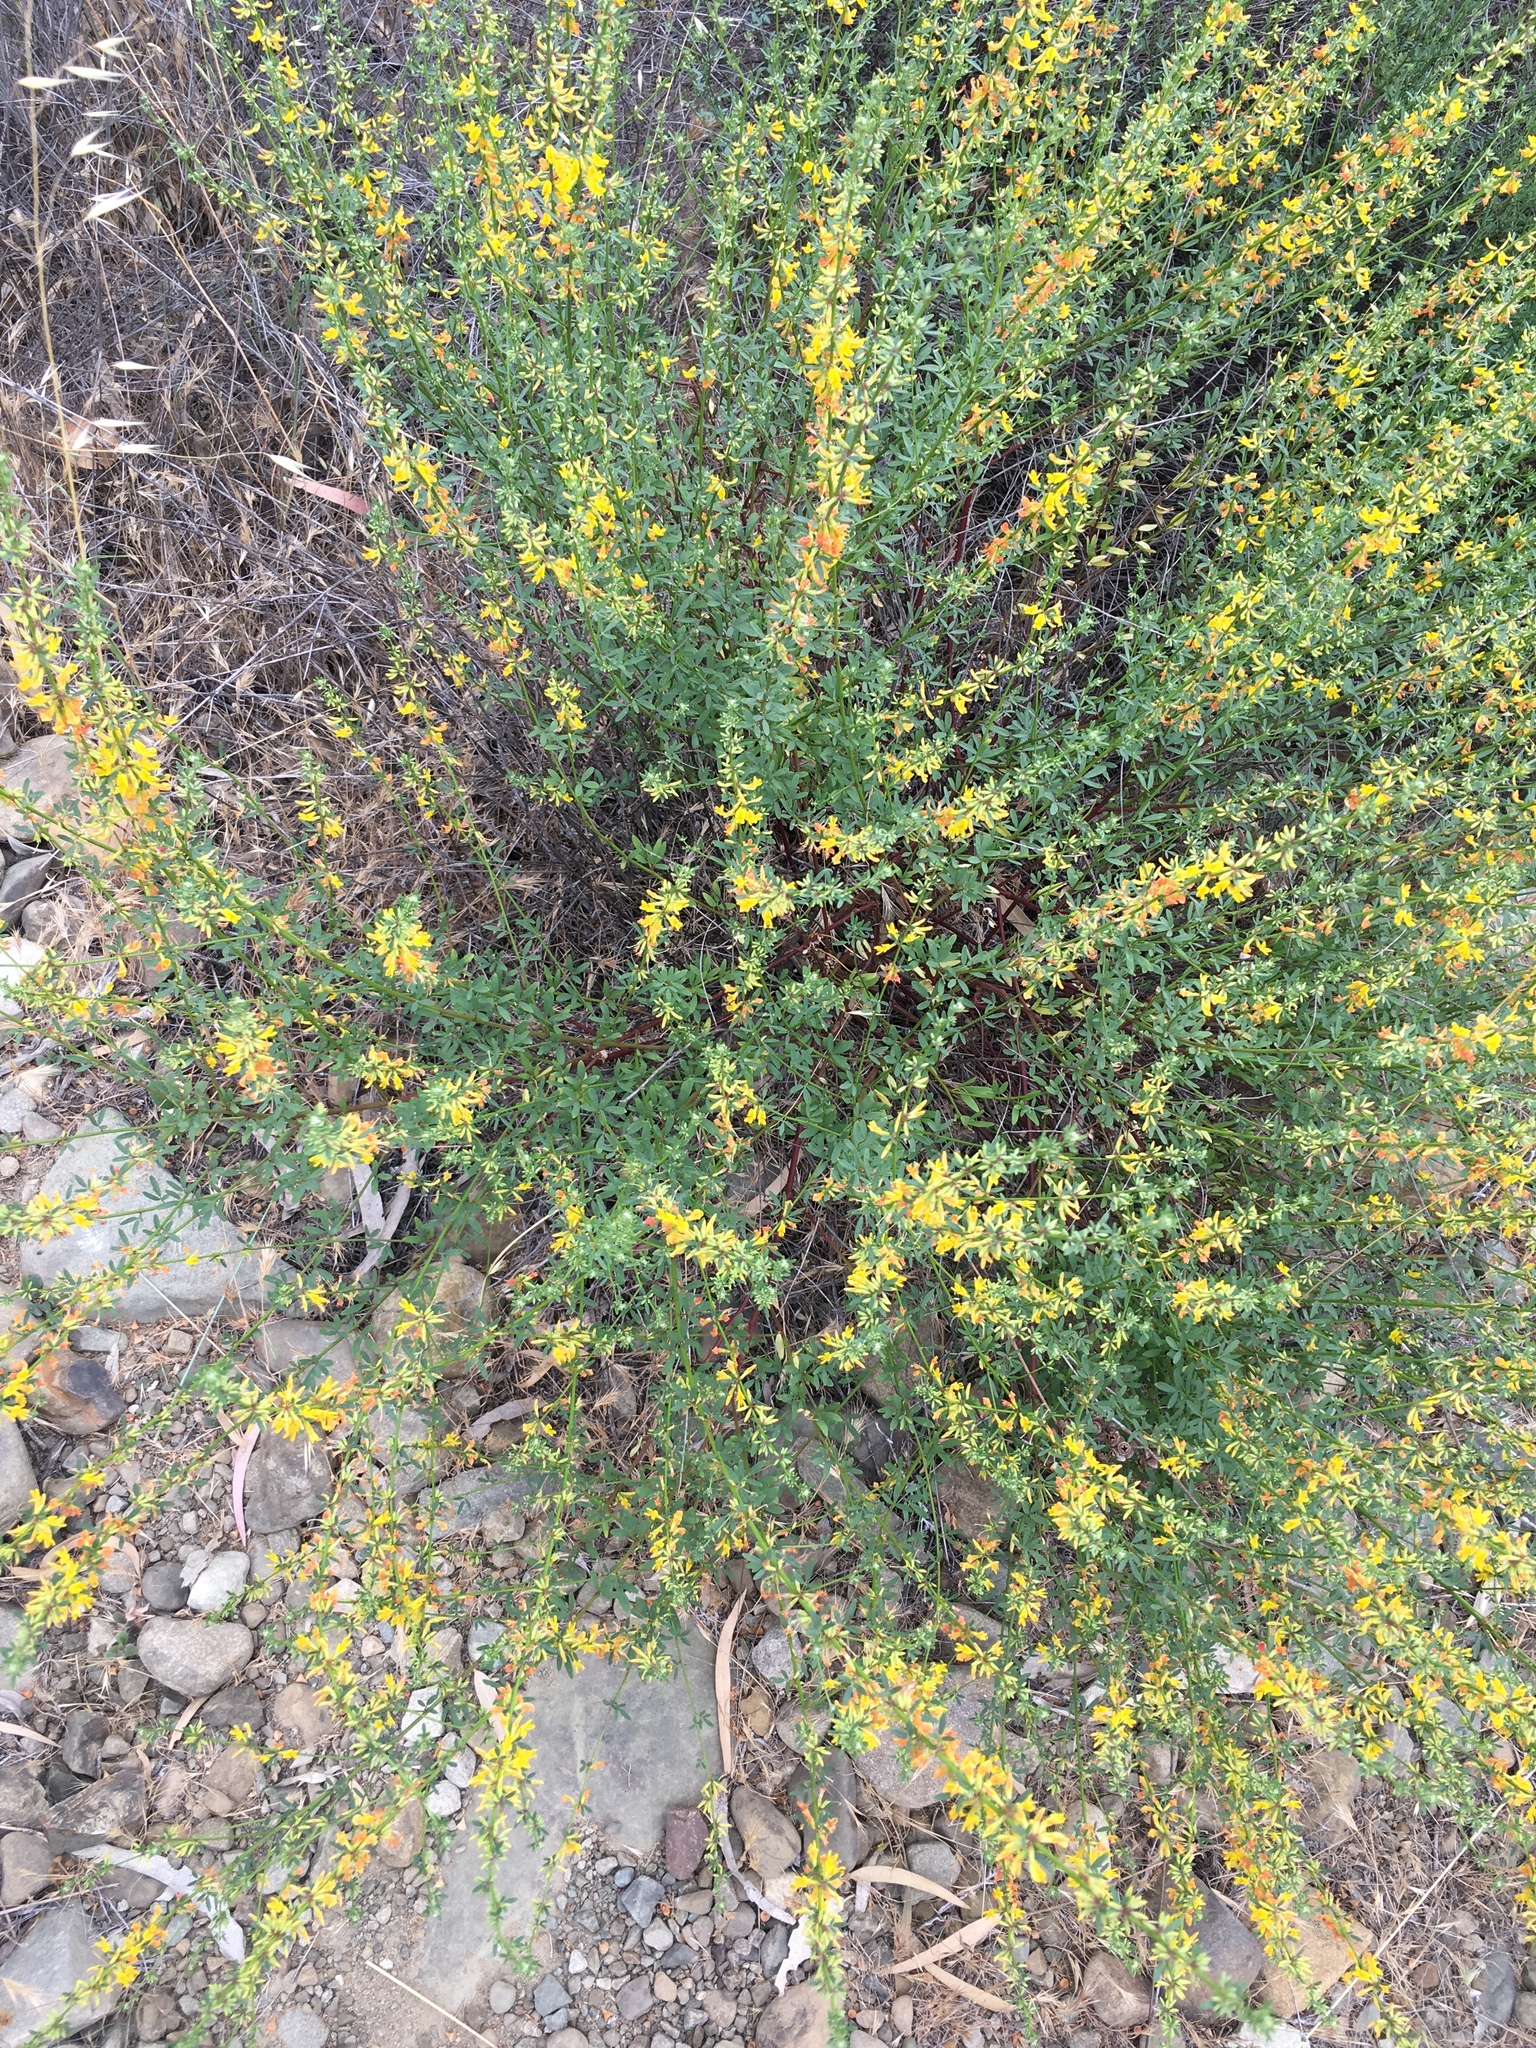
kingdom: Plantae
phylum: Tracheophyta
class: Magnoliopsida
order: Fabales
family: Fabaceae
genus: Acmispon
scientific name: Acmispon glaber
